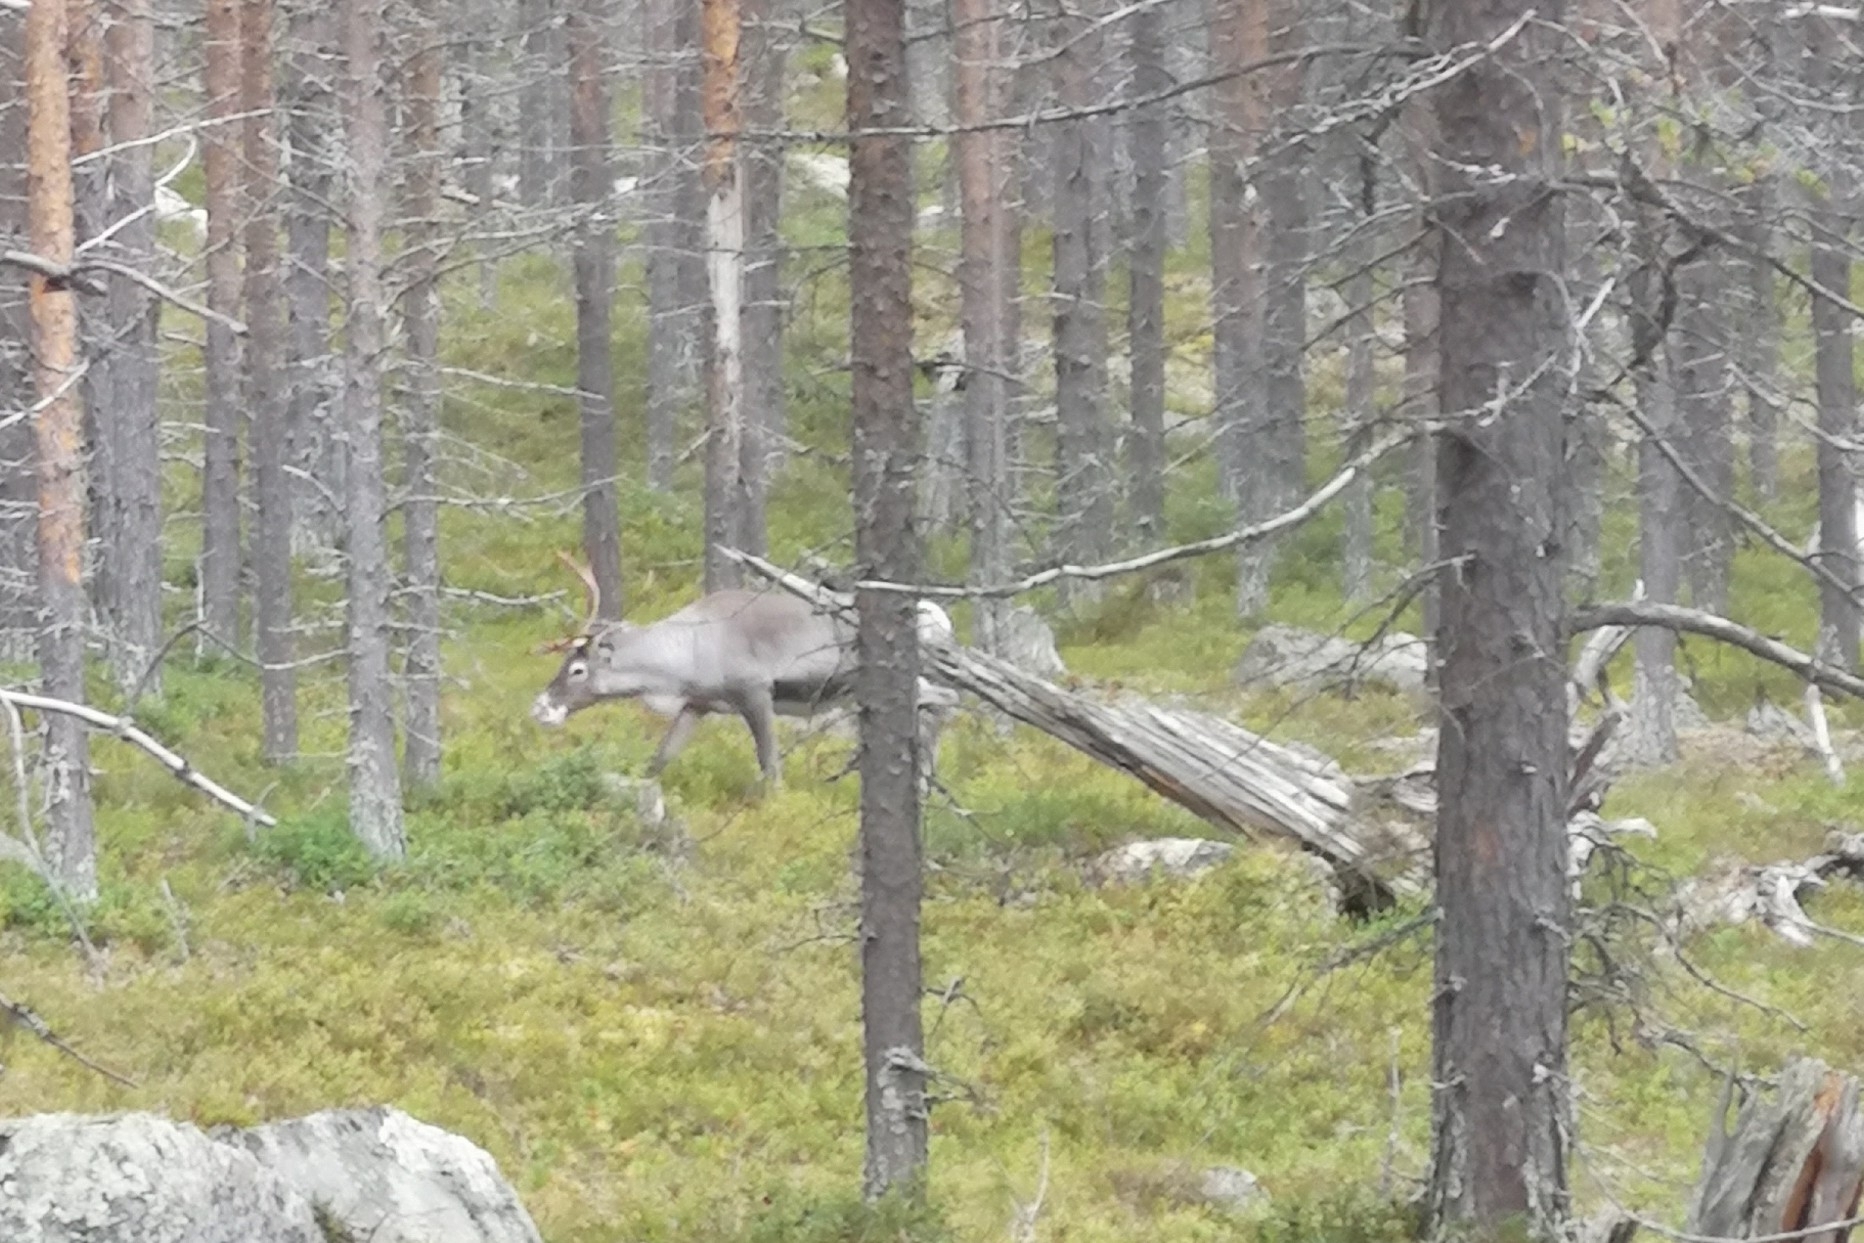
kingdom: Animalia
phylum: Chordata
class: Mammalia
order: Artiodactyla
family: Cervidae
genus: Rangifer
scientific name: Rangifer tarandus
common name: Reindeer
